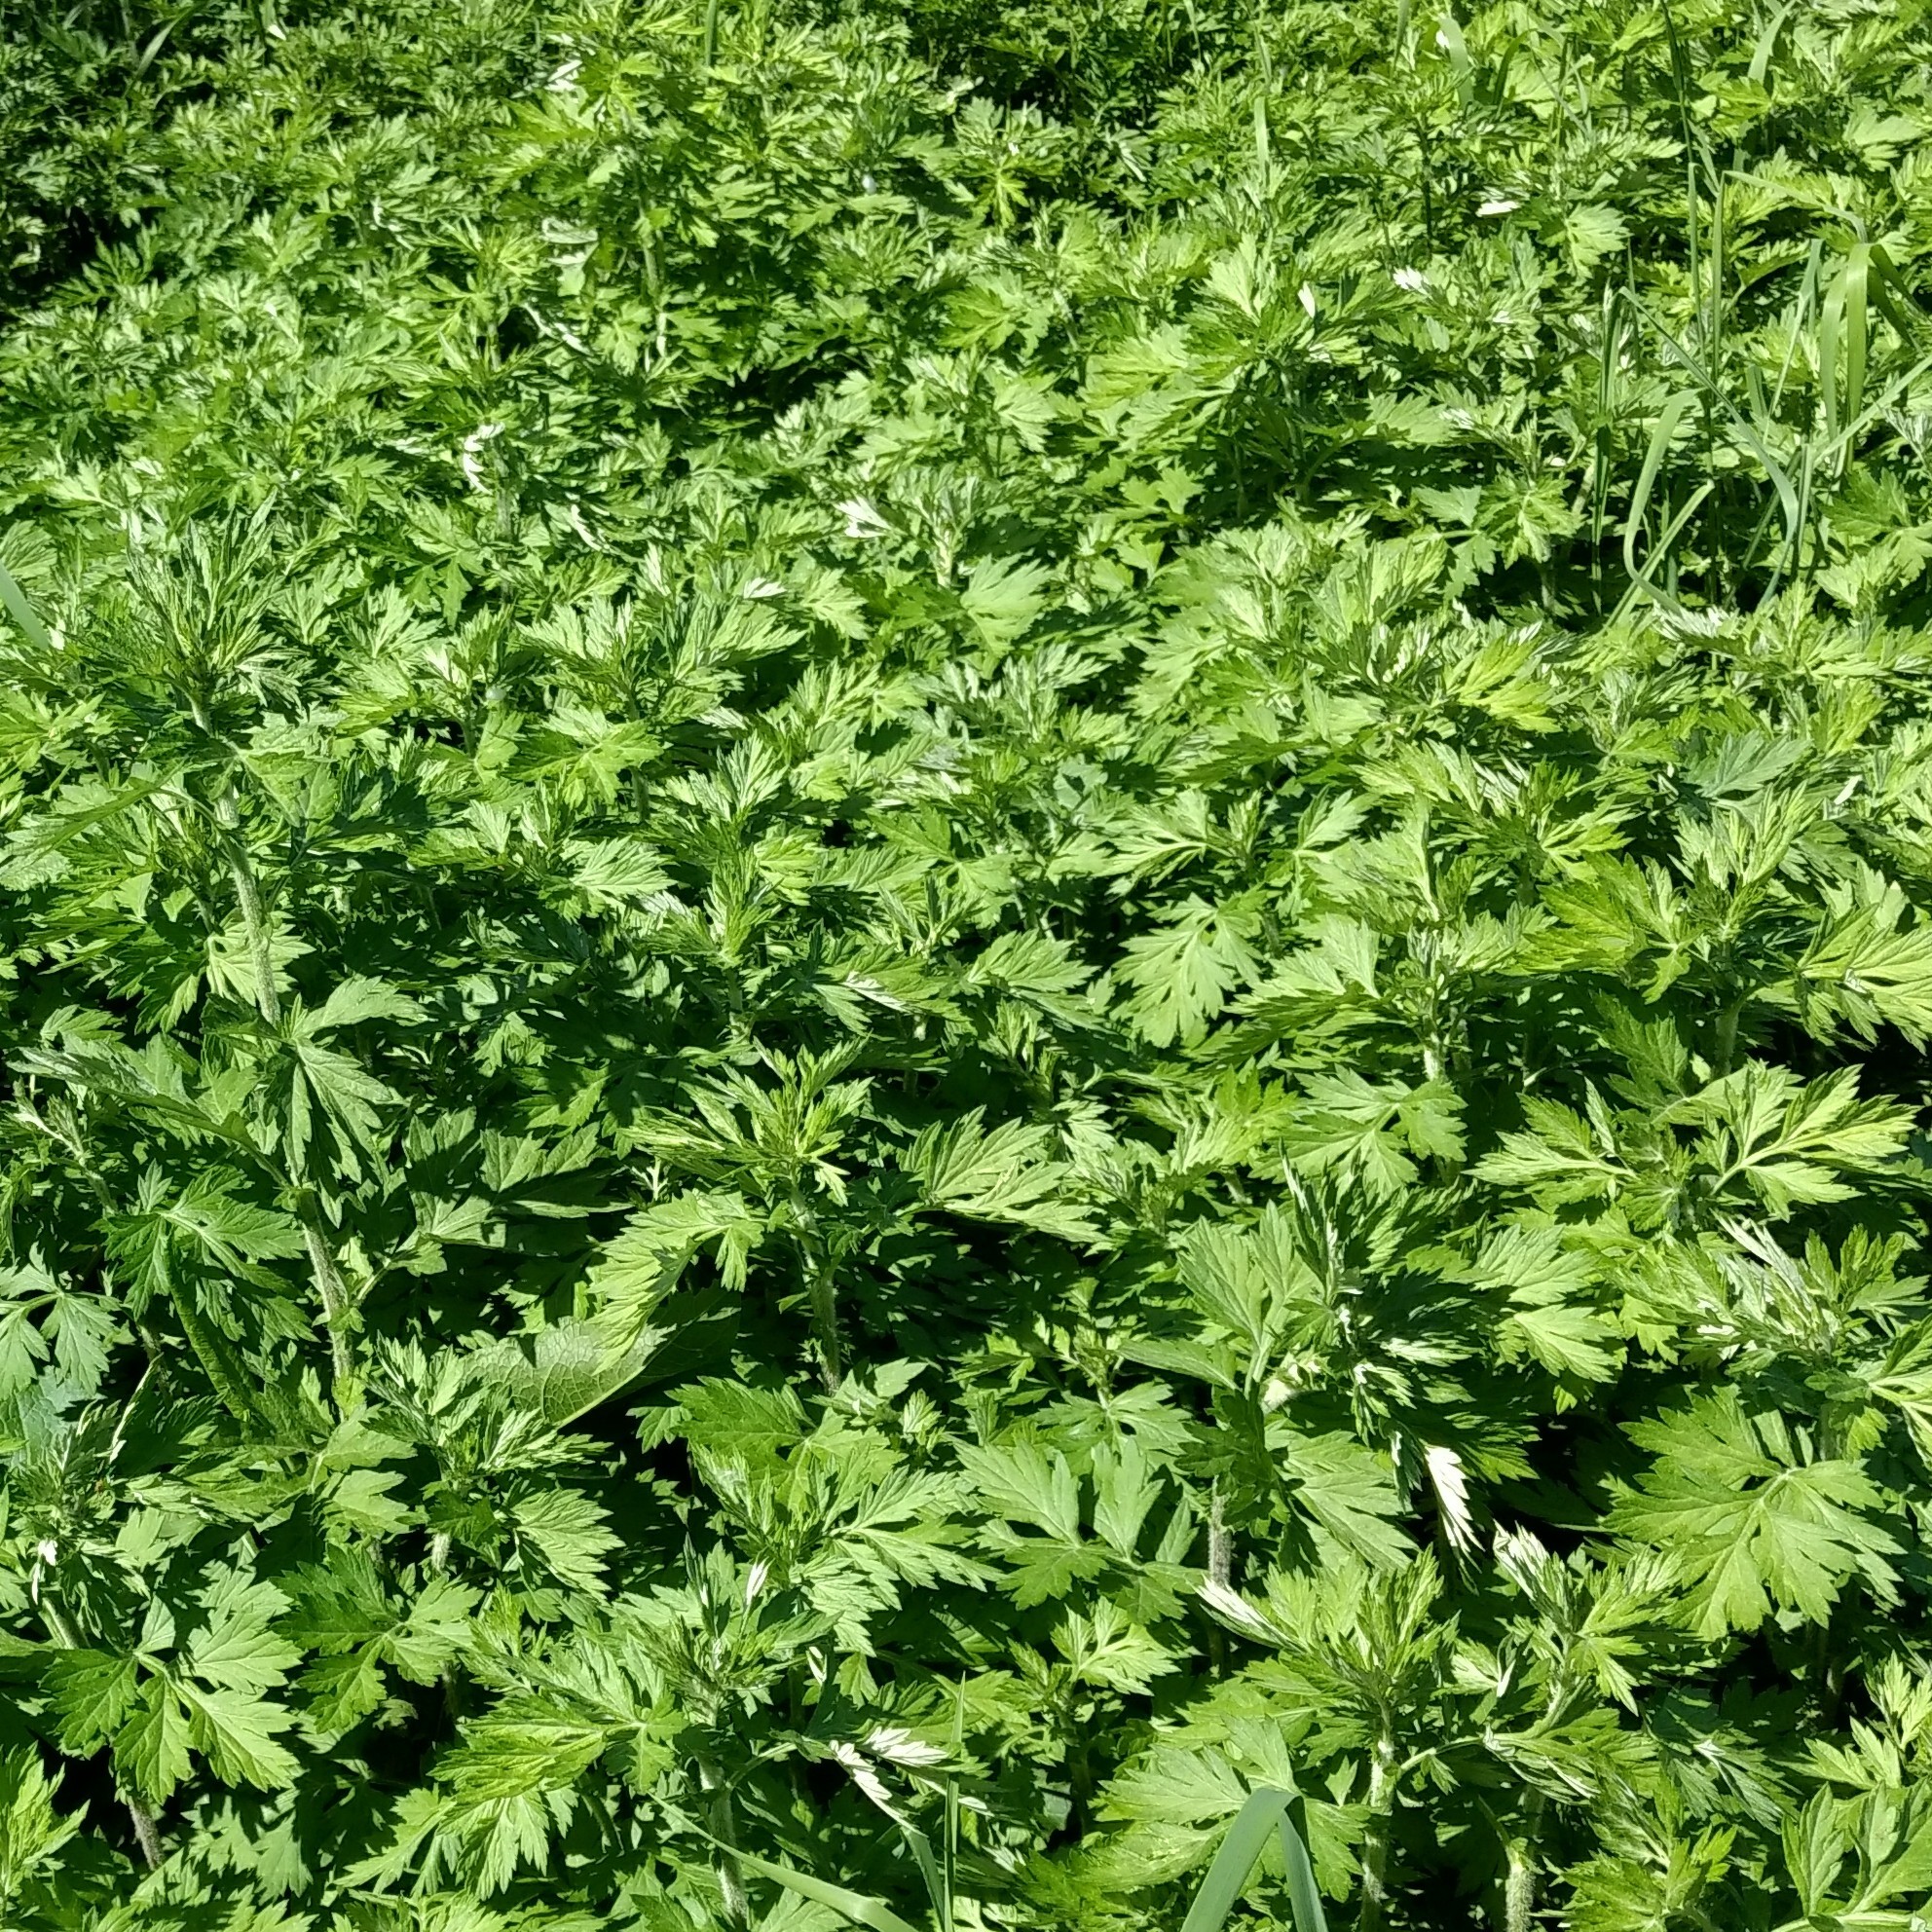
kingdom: Plantae
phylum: Tracheophyta
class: Magnoliopsida
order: Asterales
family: Asteraceae
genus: Artemisia
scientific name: Artemisia vulgaris
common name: Mugwort
